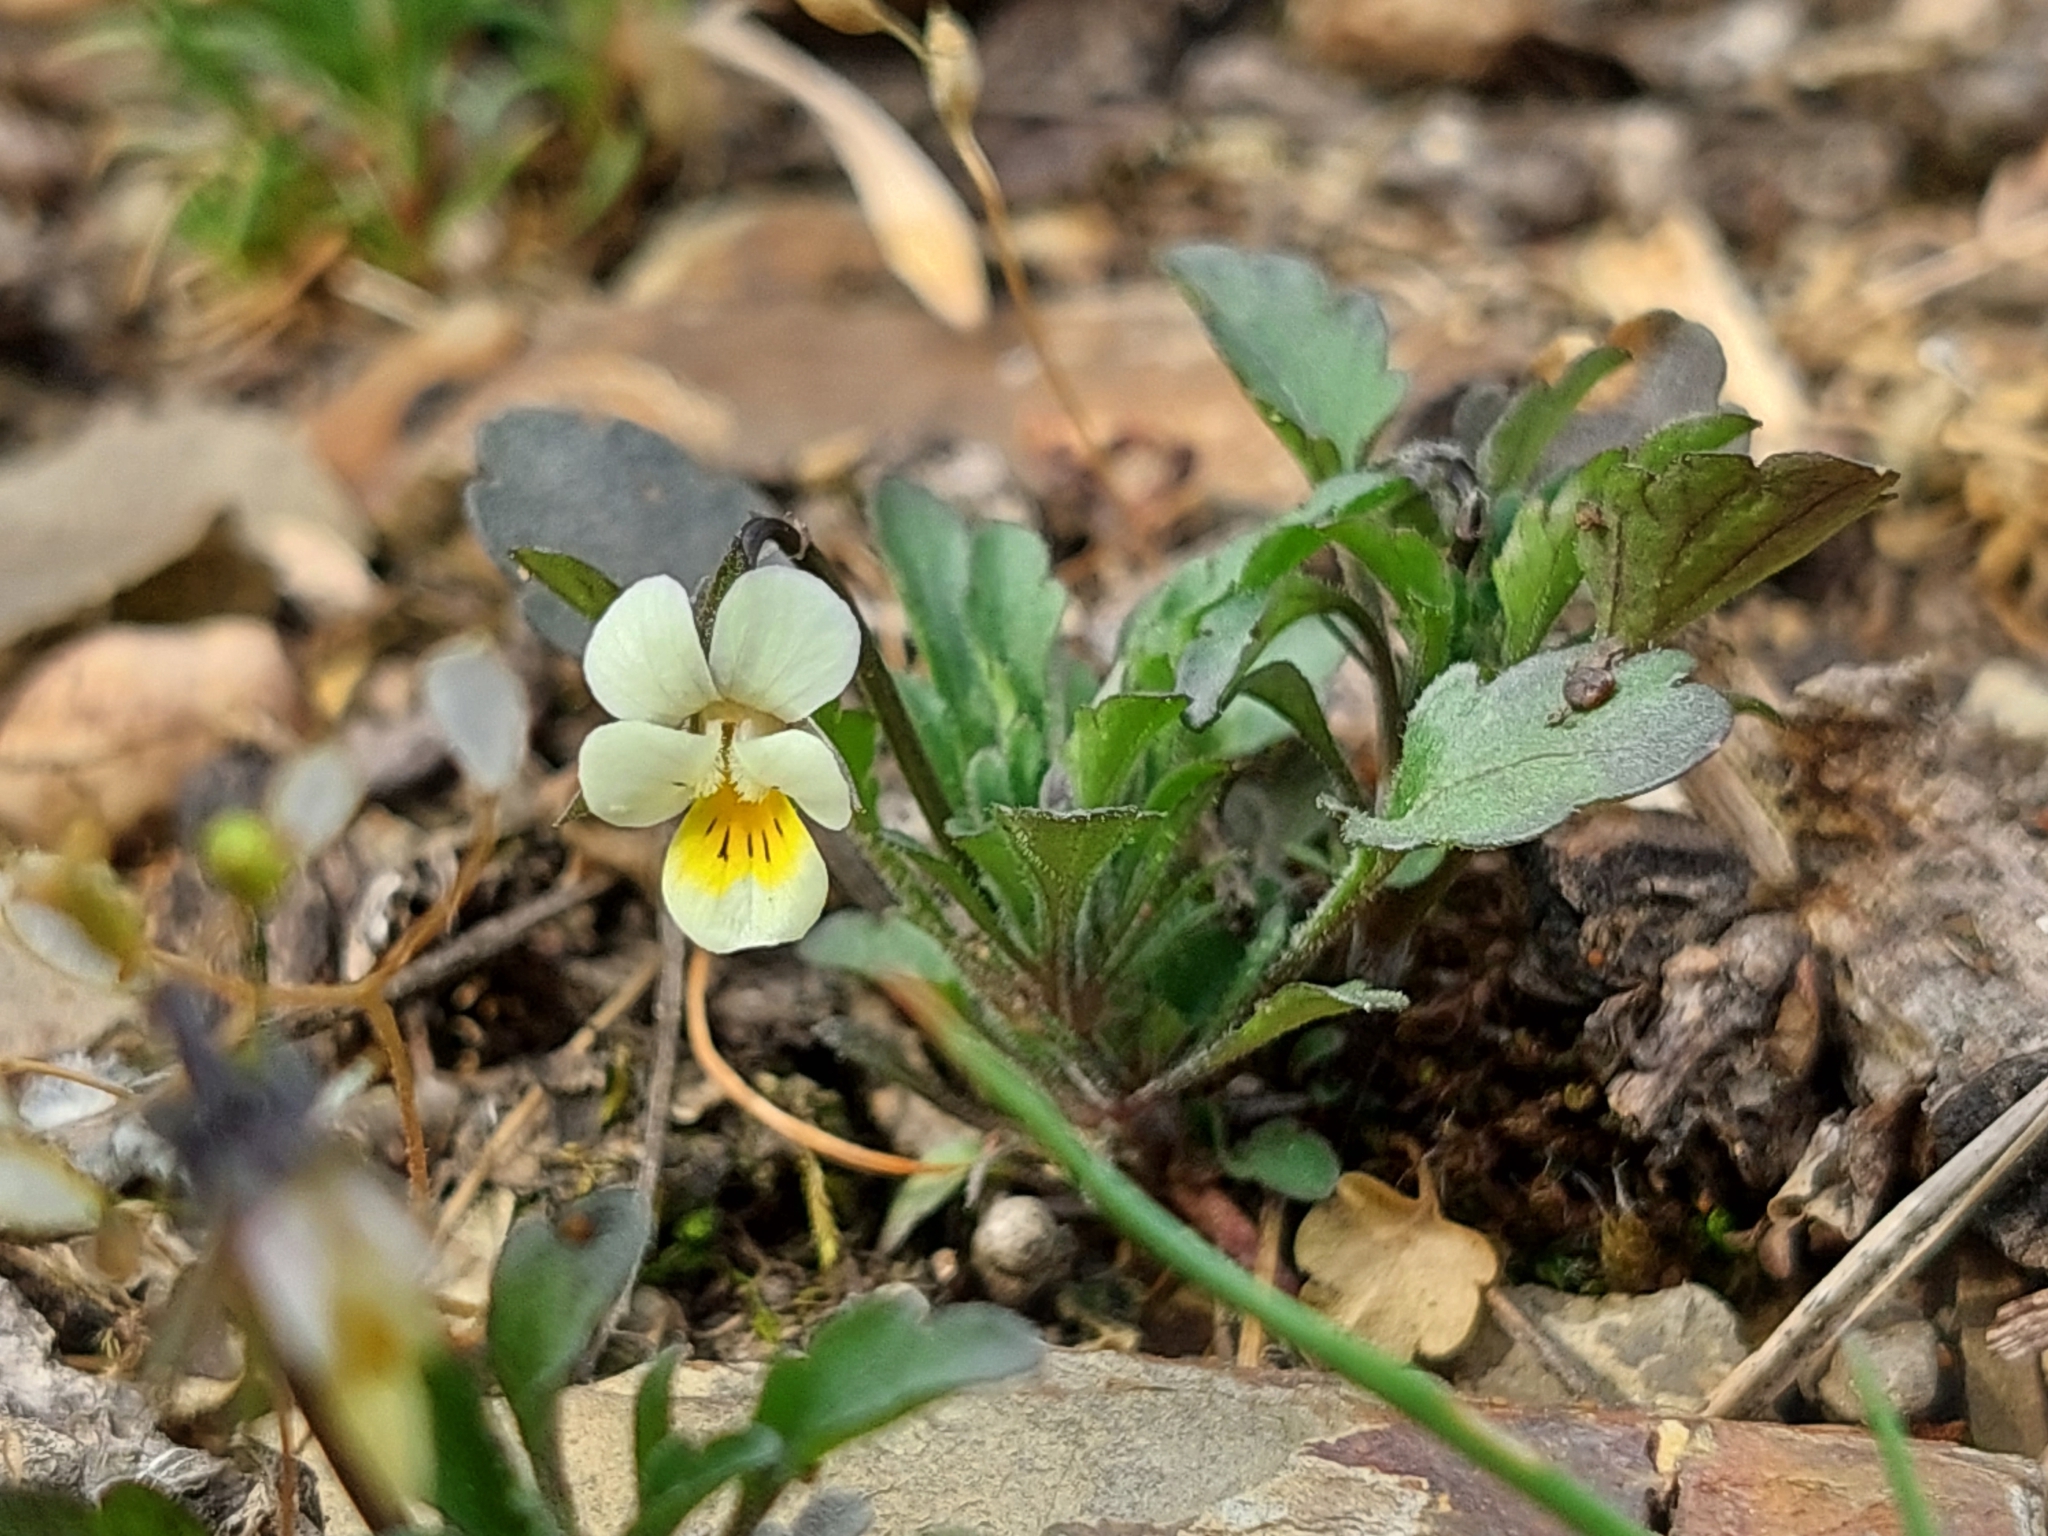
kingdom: Plantae
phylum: Tracheophyta
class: Magnoliopsida
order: Malpighiales
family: Violaceae
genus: Viola
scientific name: Viola arvensis
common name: Field pansy
